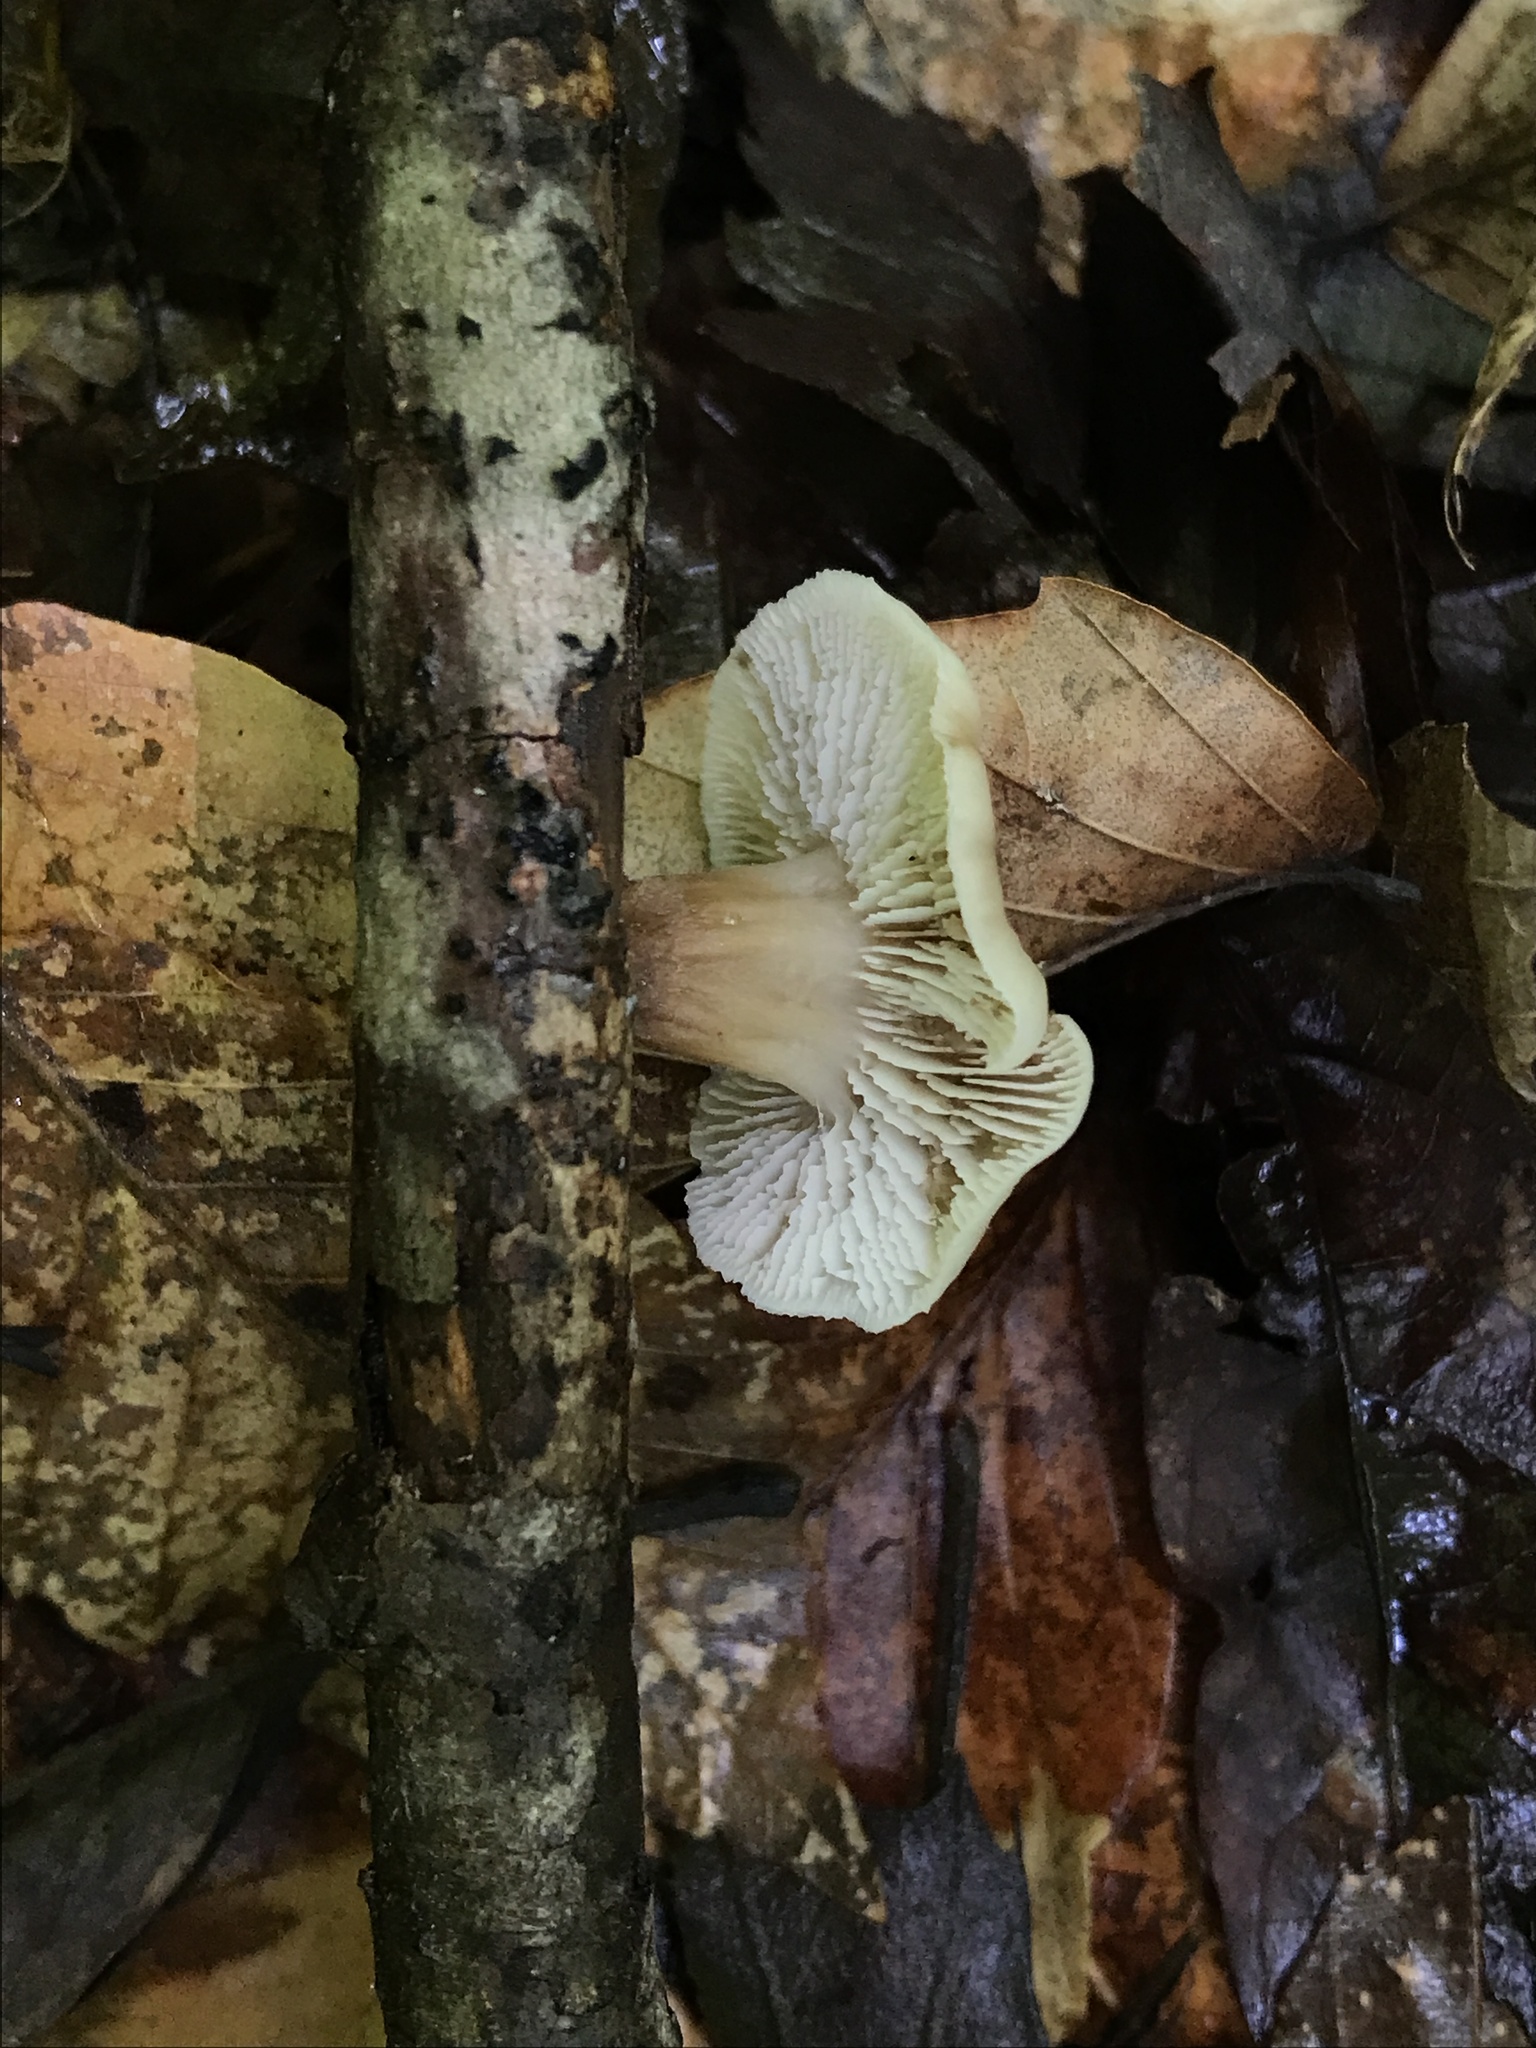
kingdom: Fungi
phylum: Basidiomycota
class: Agaricomycetes
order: Russulales
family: Auriscalpiaceae
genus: Lentinellus
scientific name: Lentinellus subaustralis
